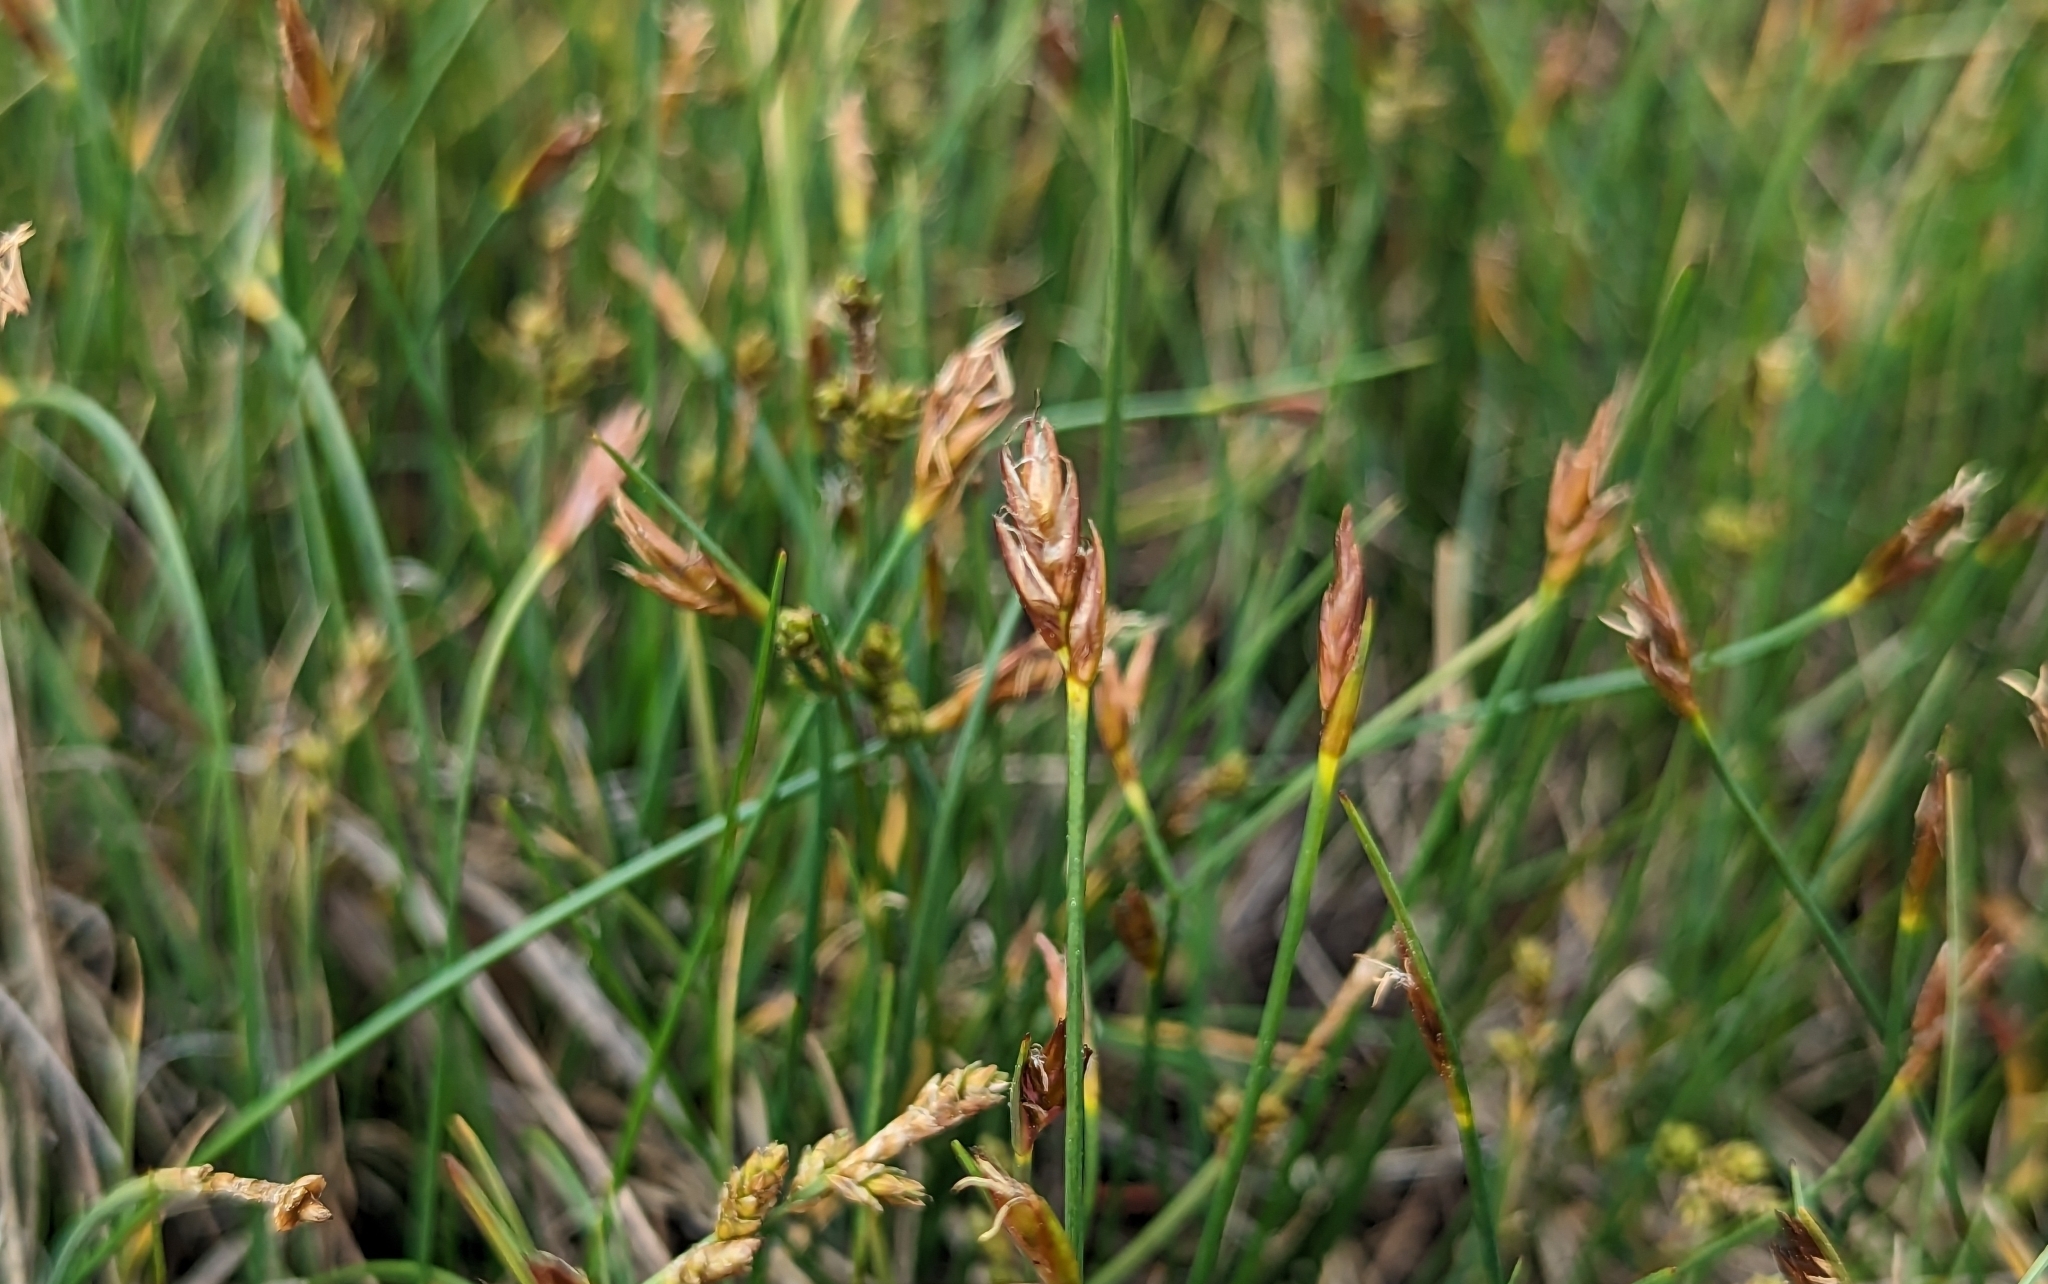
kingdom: Plantae
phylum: Tracheophyta
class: Liliopsida
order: Poales
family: Cyperaceae
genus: Blysmus
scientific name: Blysmus rufus
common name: Saltmarsh flat-sedge
